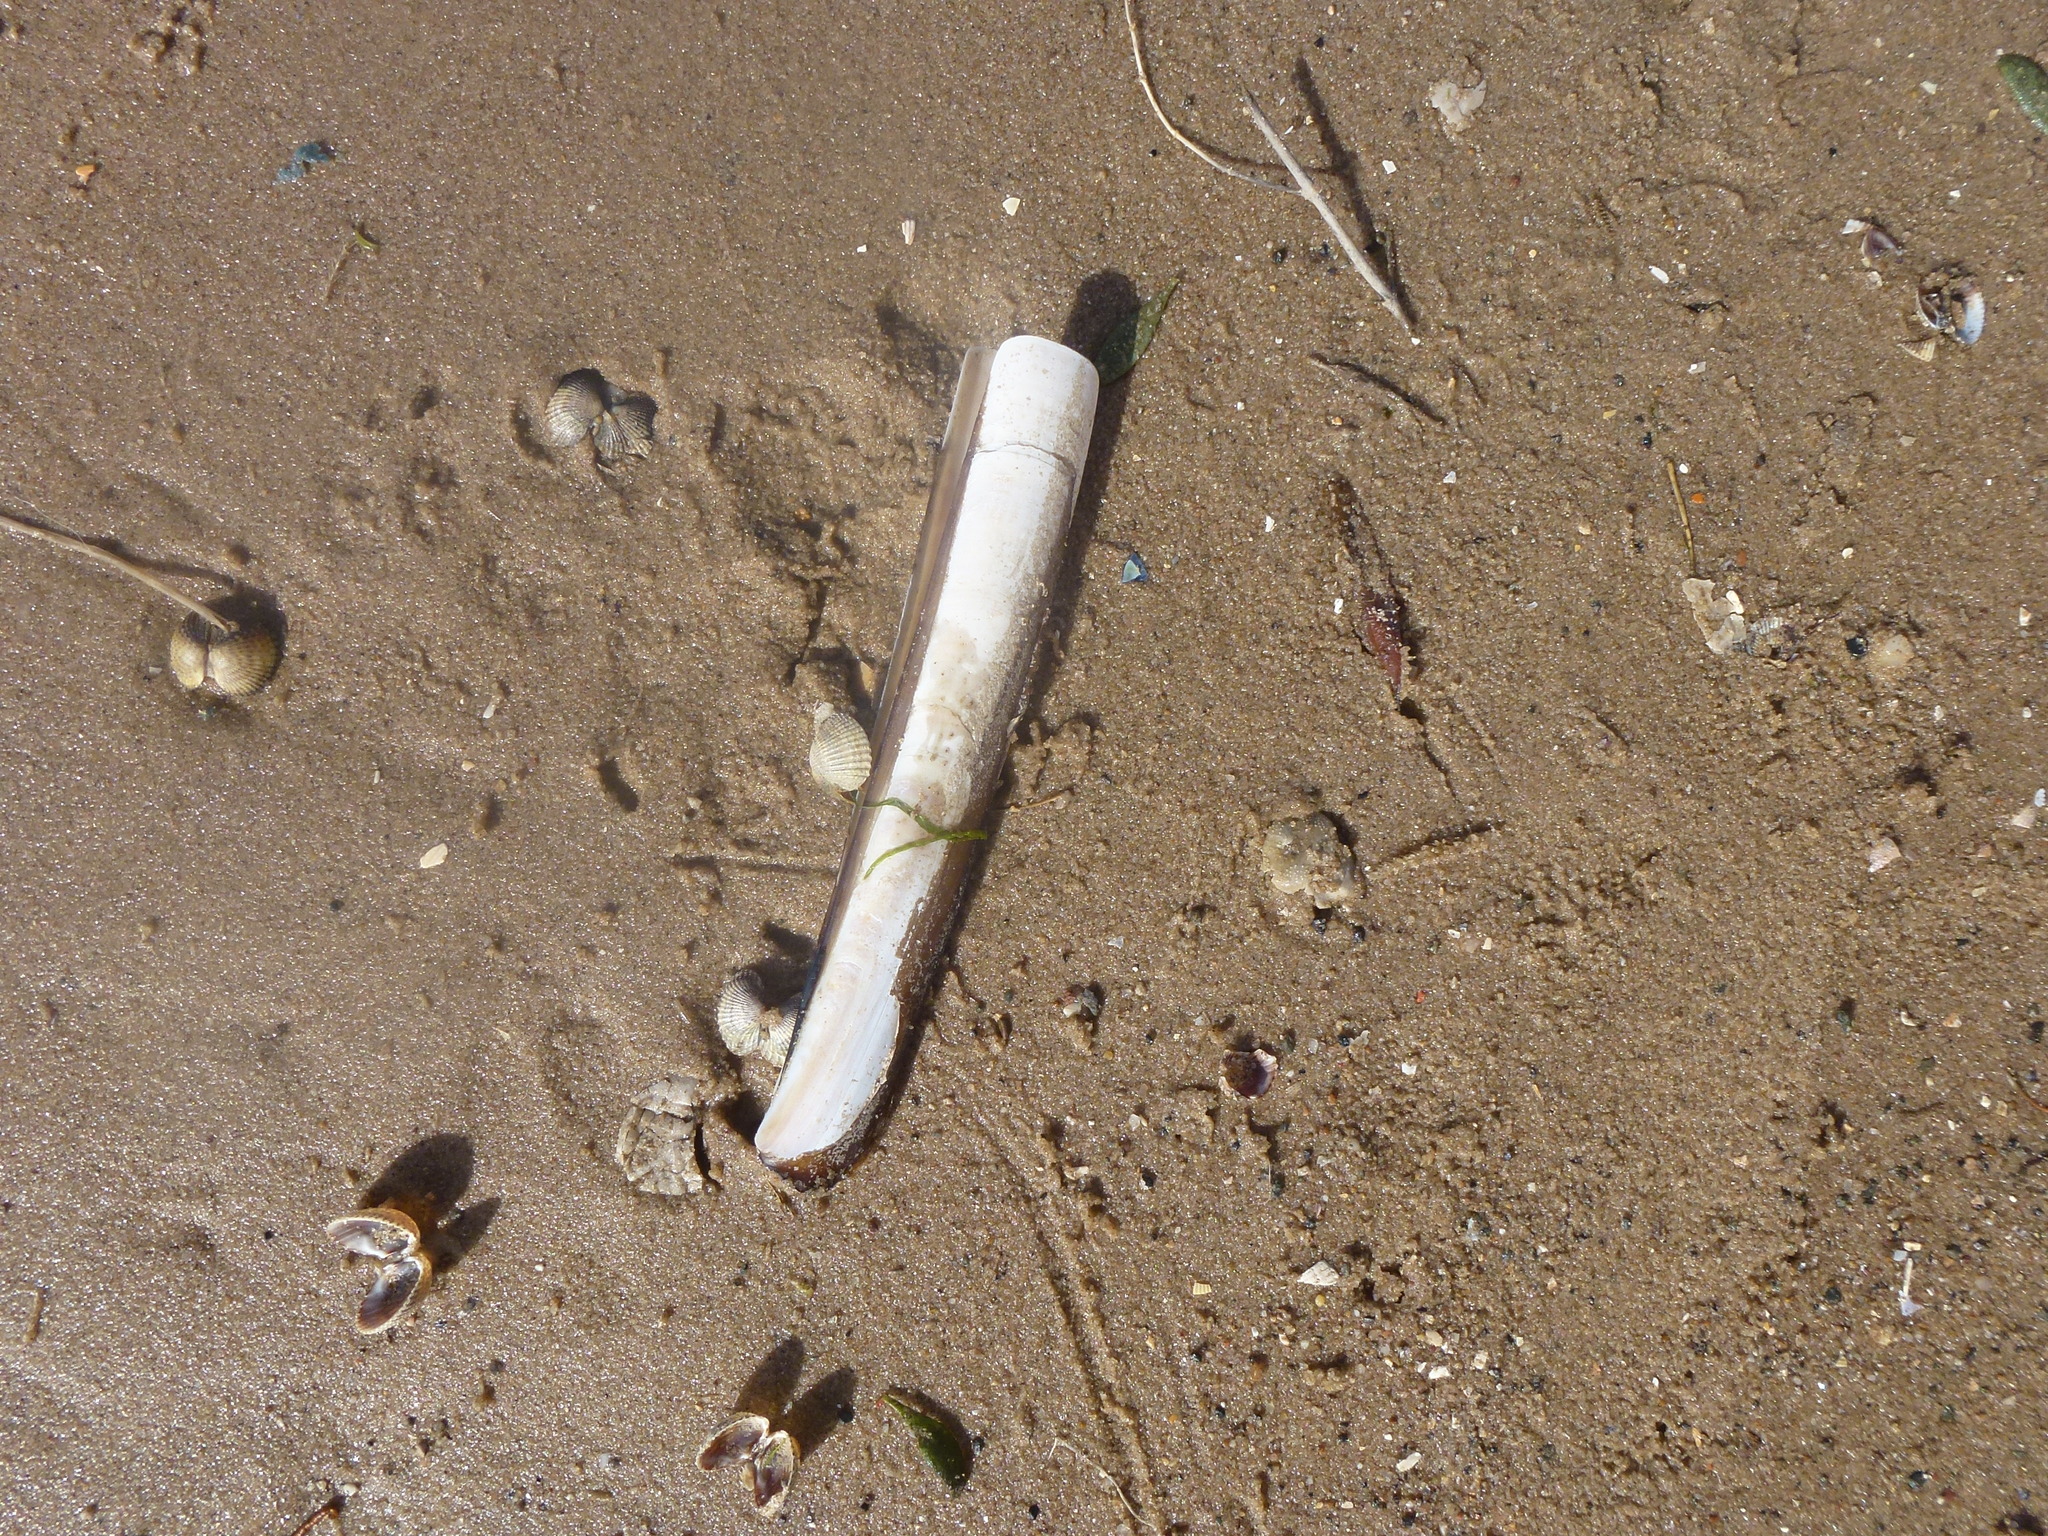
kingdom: Animalia
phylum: Mollusca
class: Bivalvia
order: Adapedonta
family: Pharidae
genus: Ensis
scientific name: Ensis leei
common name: American jack knife clam
